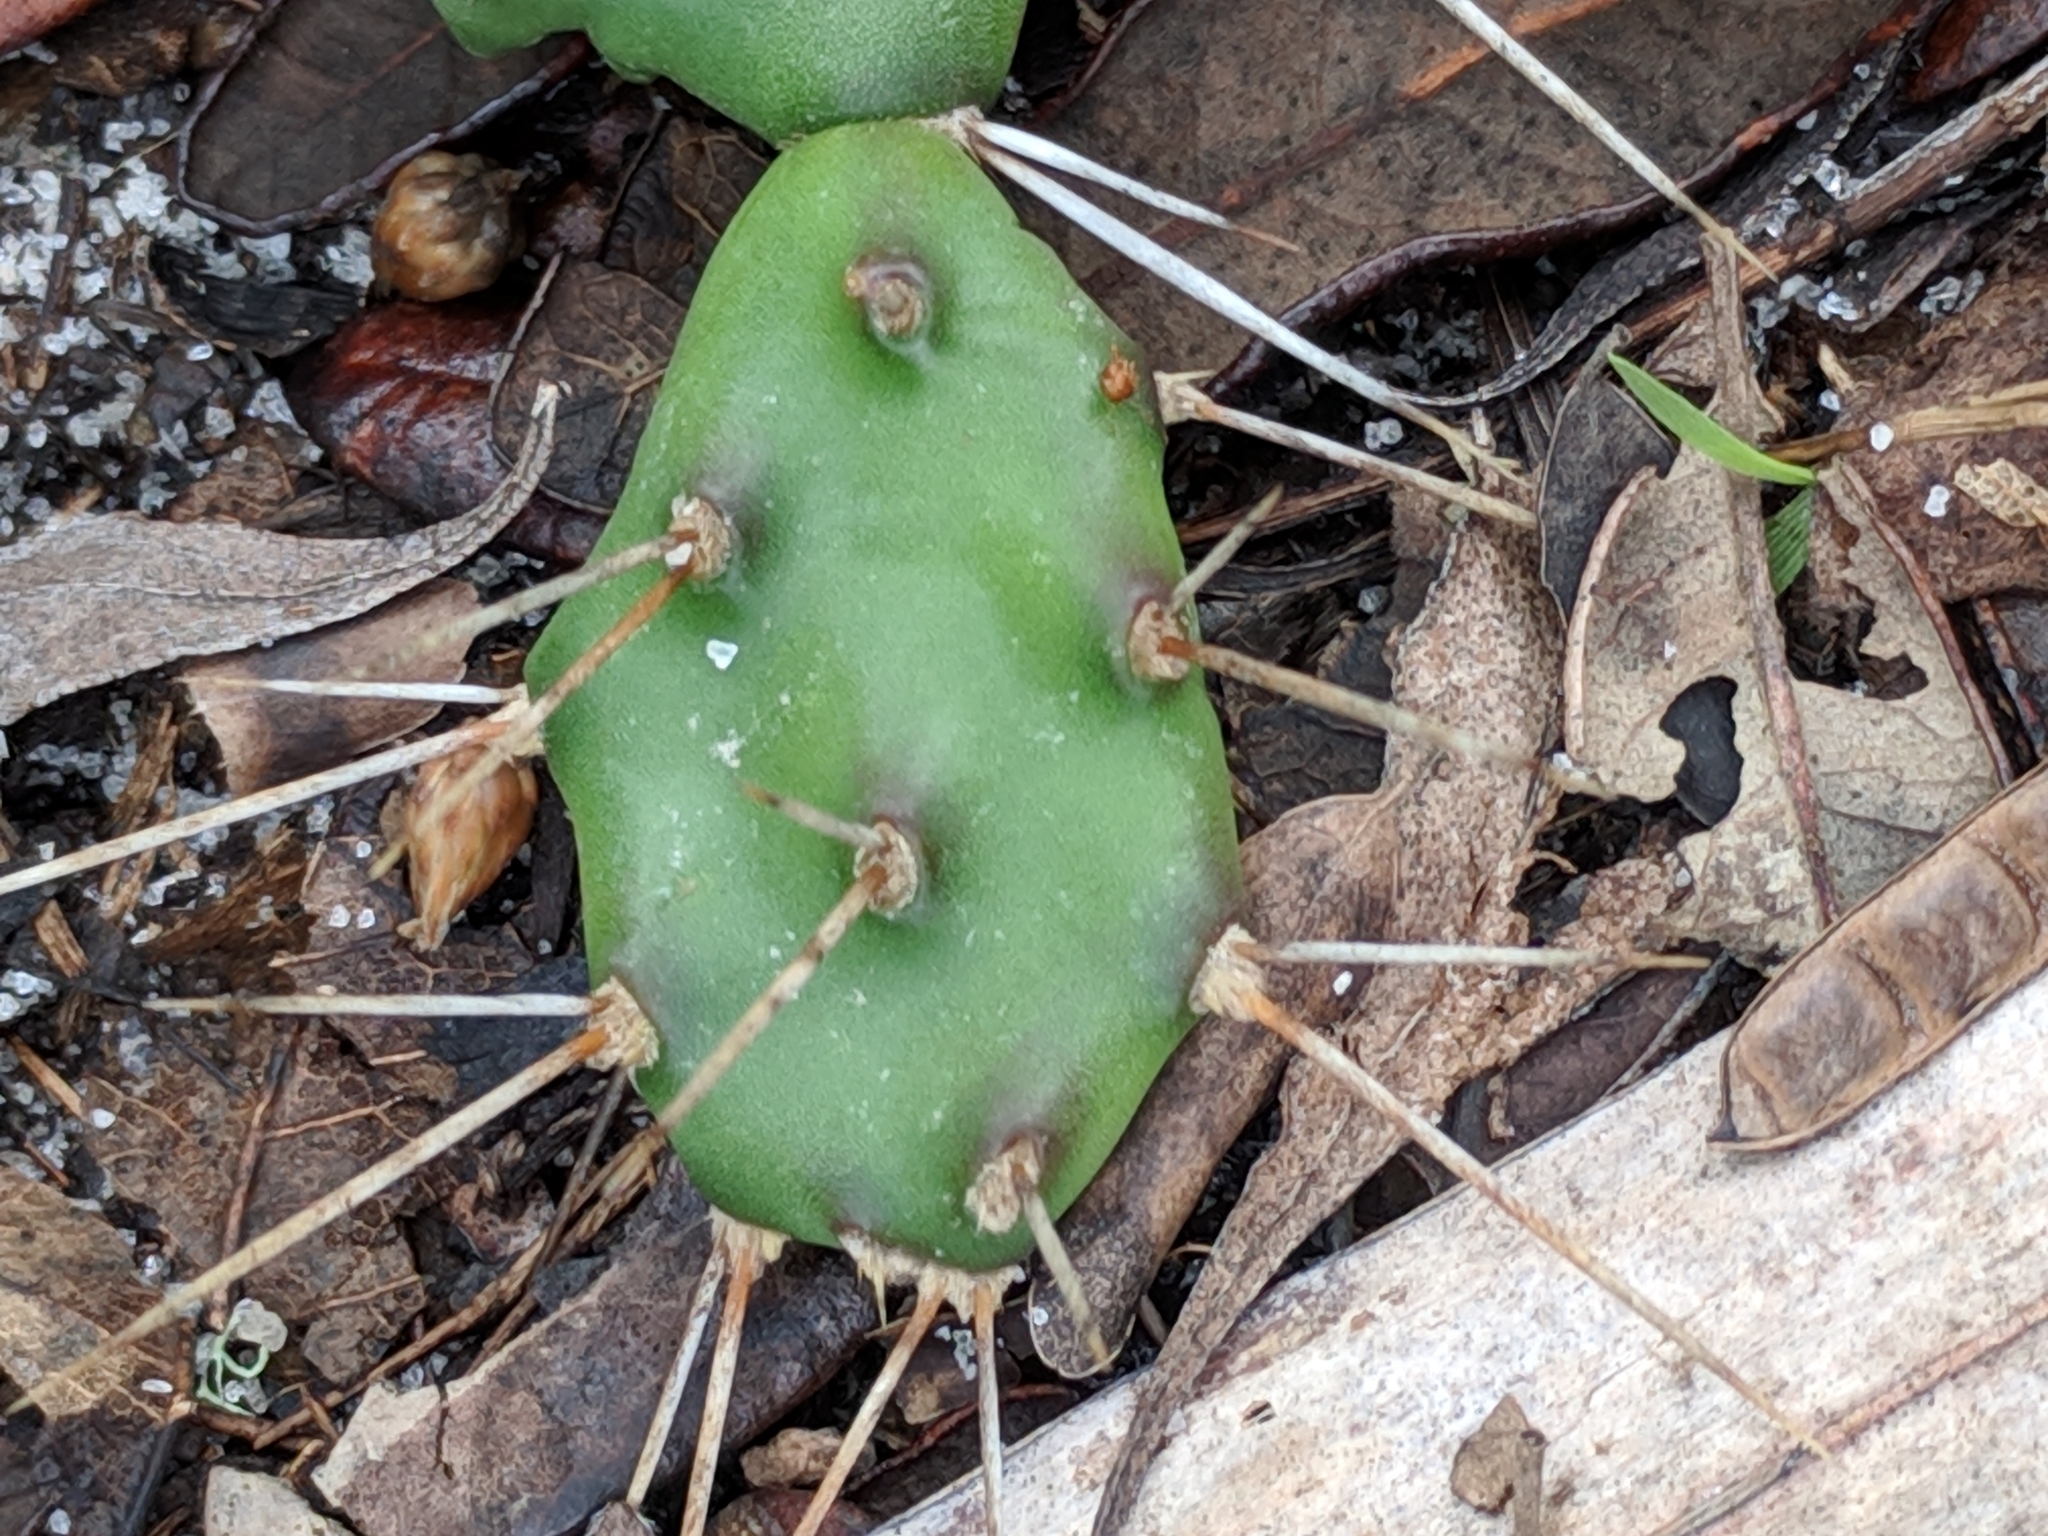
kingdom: Plantae
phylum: Tracheophyta
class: Magnoliopsida
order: Caryophyllales
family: Cactaceae
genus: Opuntia
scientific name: Opuntia drummondii
